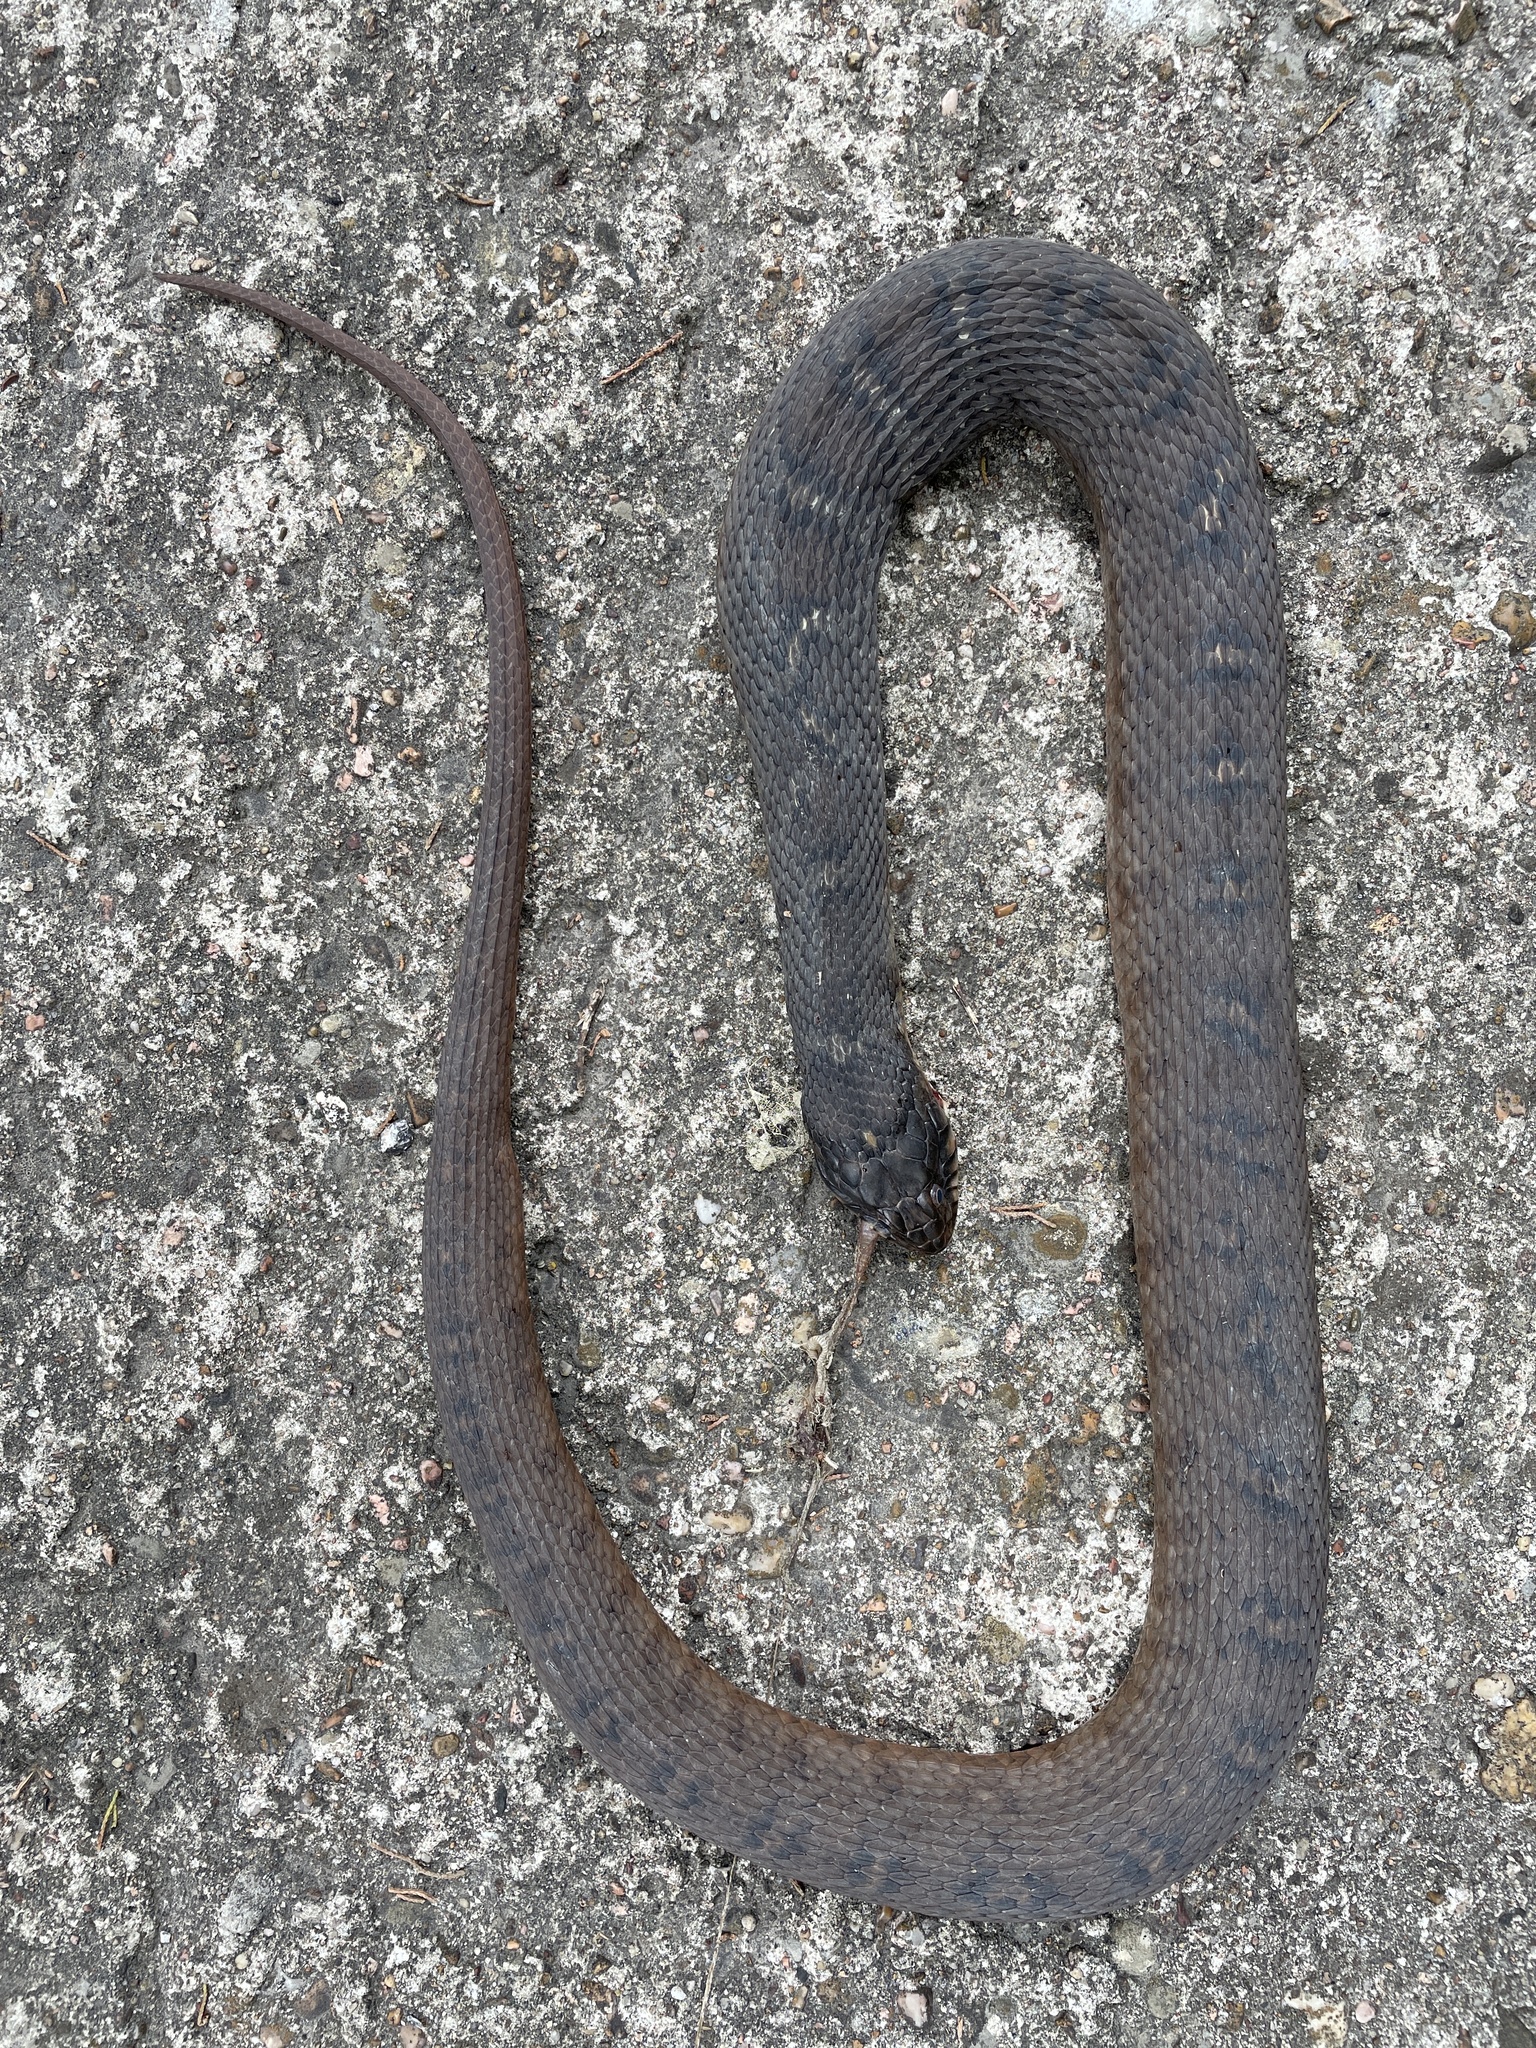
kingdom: Animalia
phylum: Chordata
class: Squamata
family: Colubridae
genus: Nerodia
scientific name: Nerodia erythrogaster
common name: Plainbelly water snake
